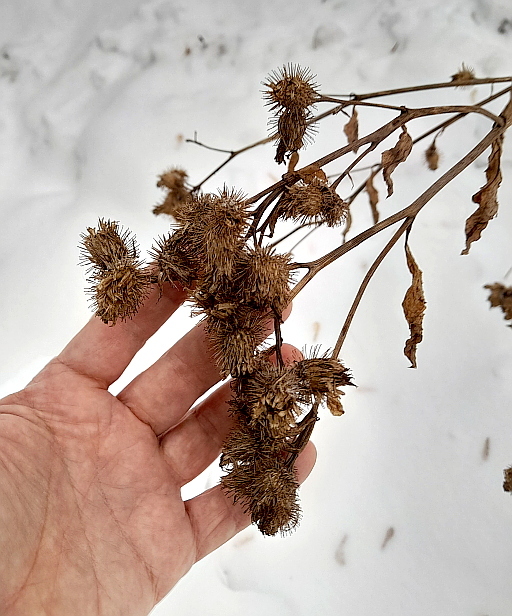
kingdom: Plantae
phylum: Tracheophyta
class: Magnoliopsida
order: Asterales
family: Asteraceae
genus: Arctium
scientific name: Arctium tomentosum
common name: Woolly burdock
